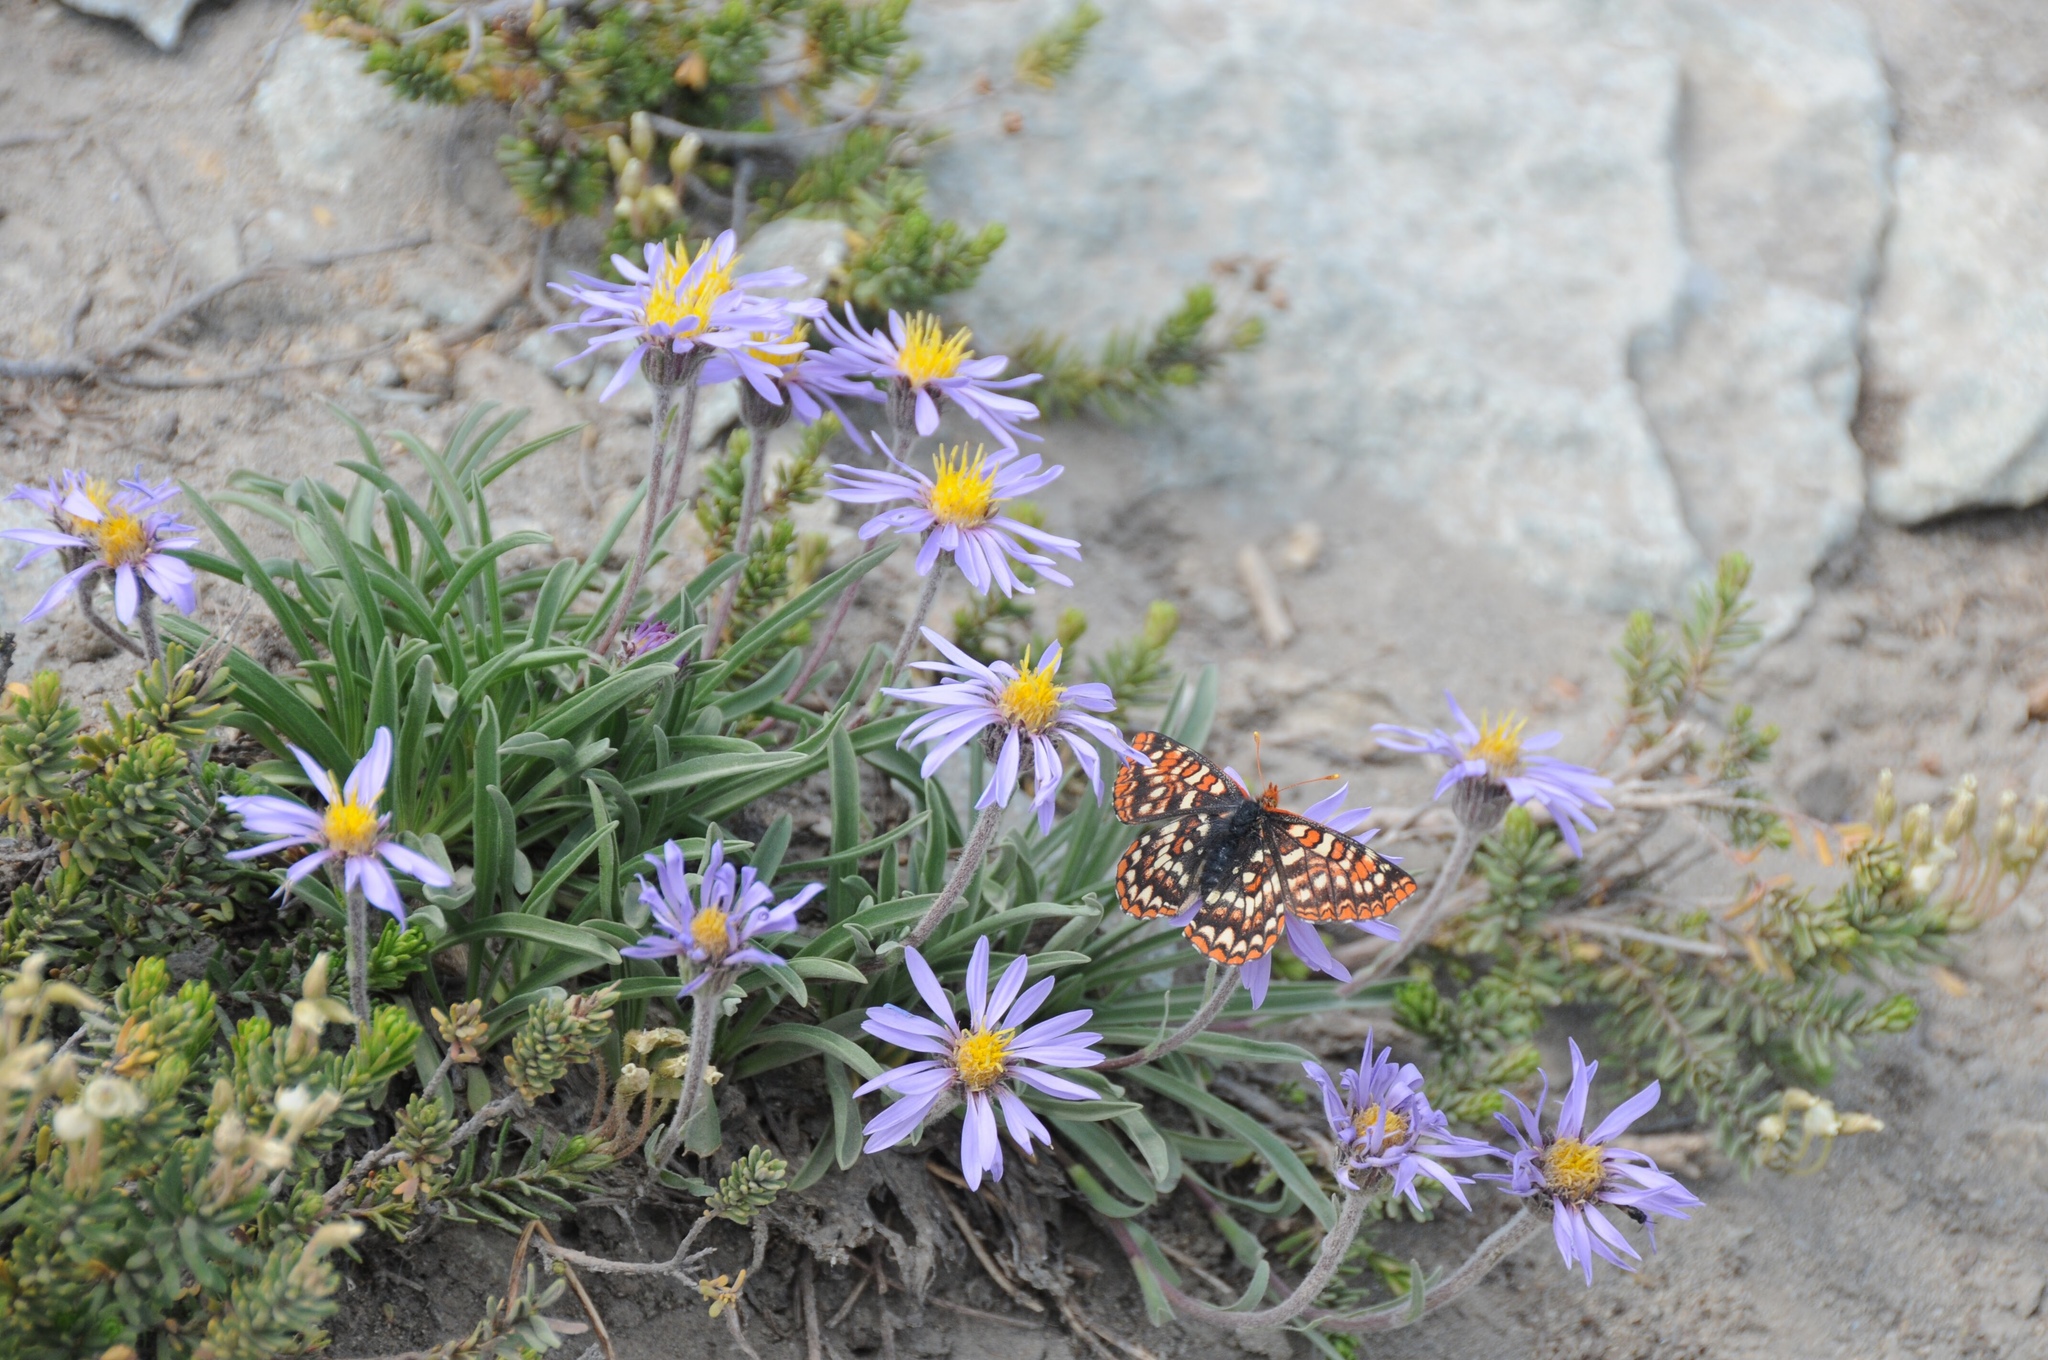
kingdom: Animalia
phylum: Arthropoda
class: Insecta
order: Lepidoptera
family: Nymphalidae
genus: Occidryas
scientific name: Occidryas editha
